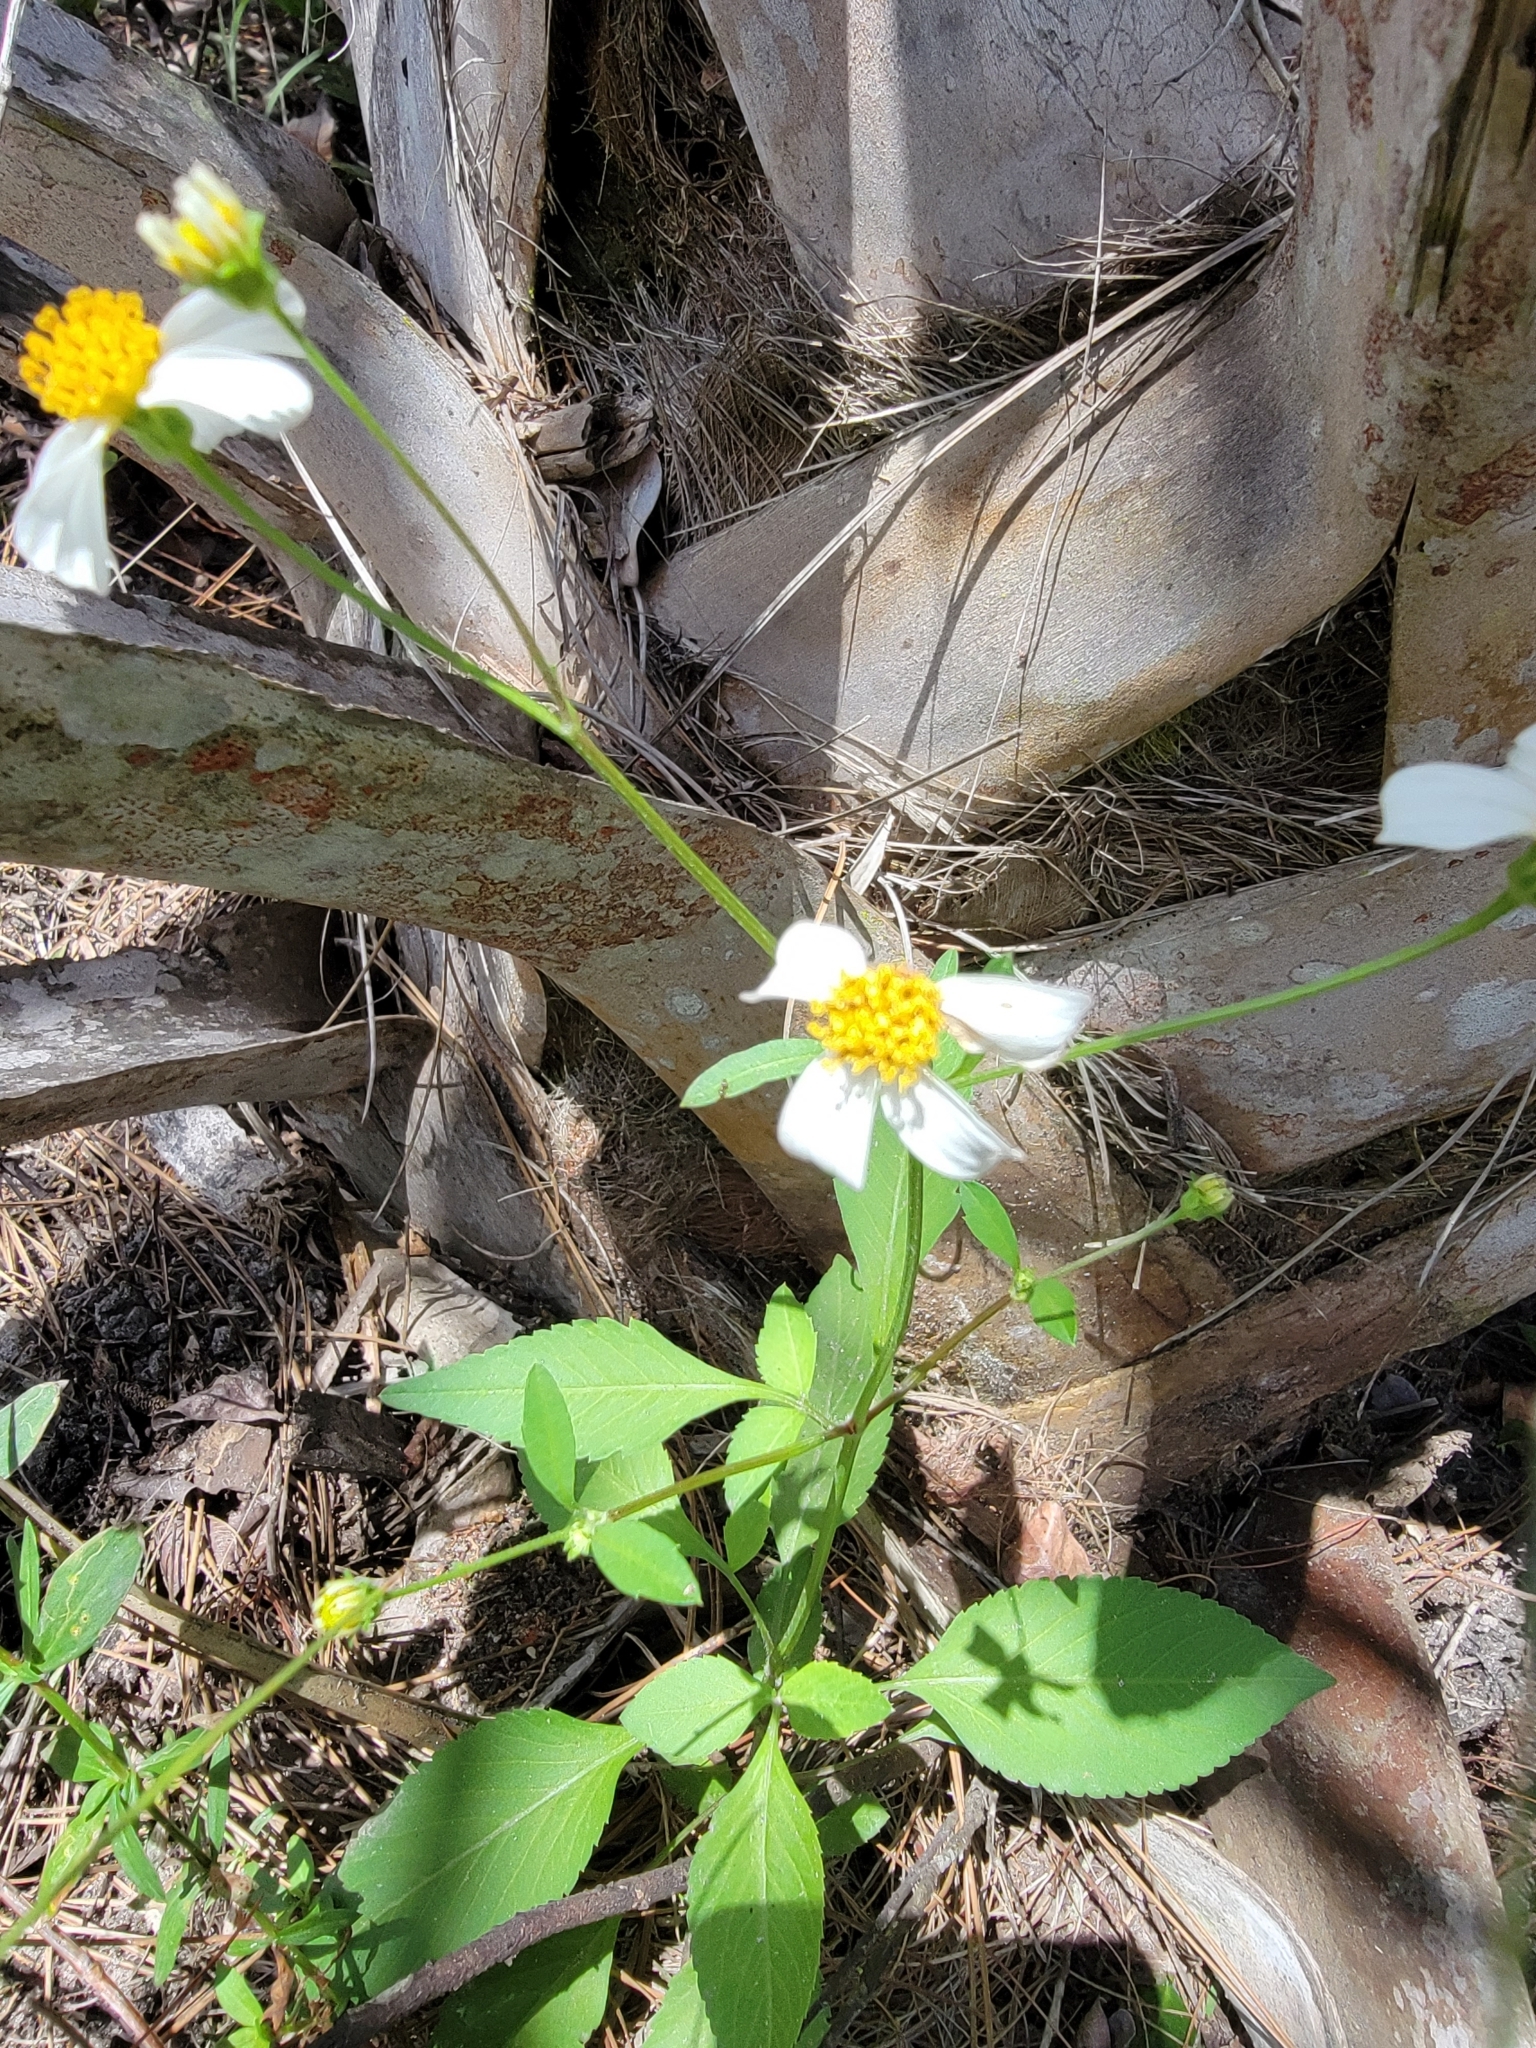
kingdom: Plantae
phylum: Tracheophyta
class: Magnoliopsida
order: Asterales
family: Asteraceae
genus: Bidens
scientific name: Bidens alba
